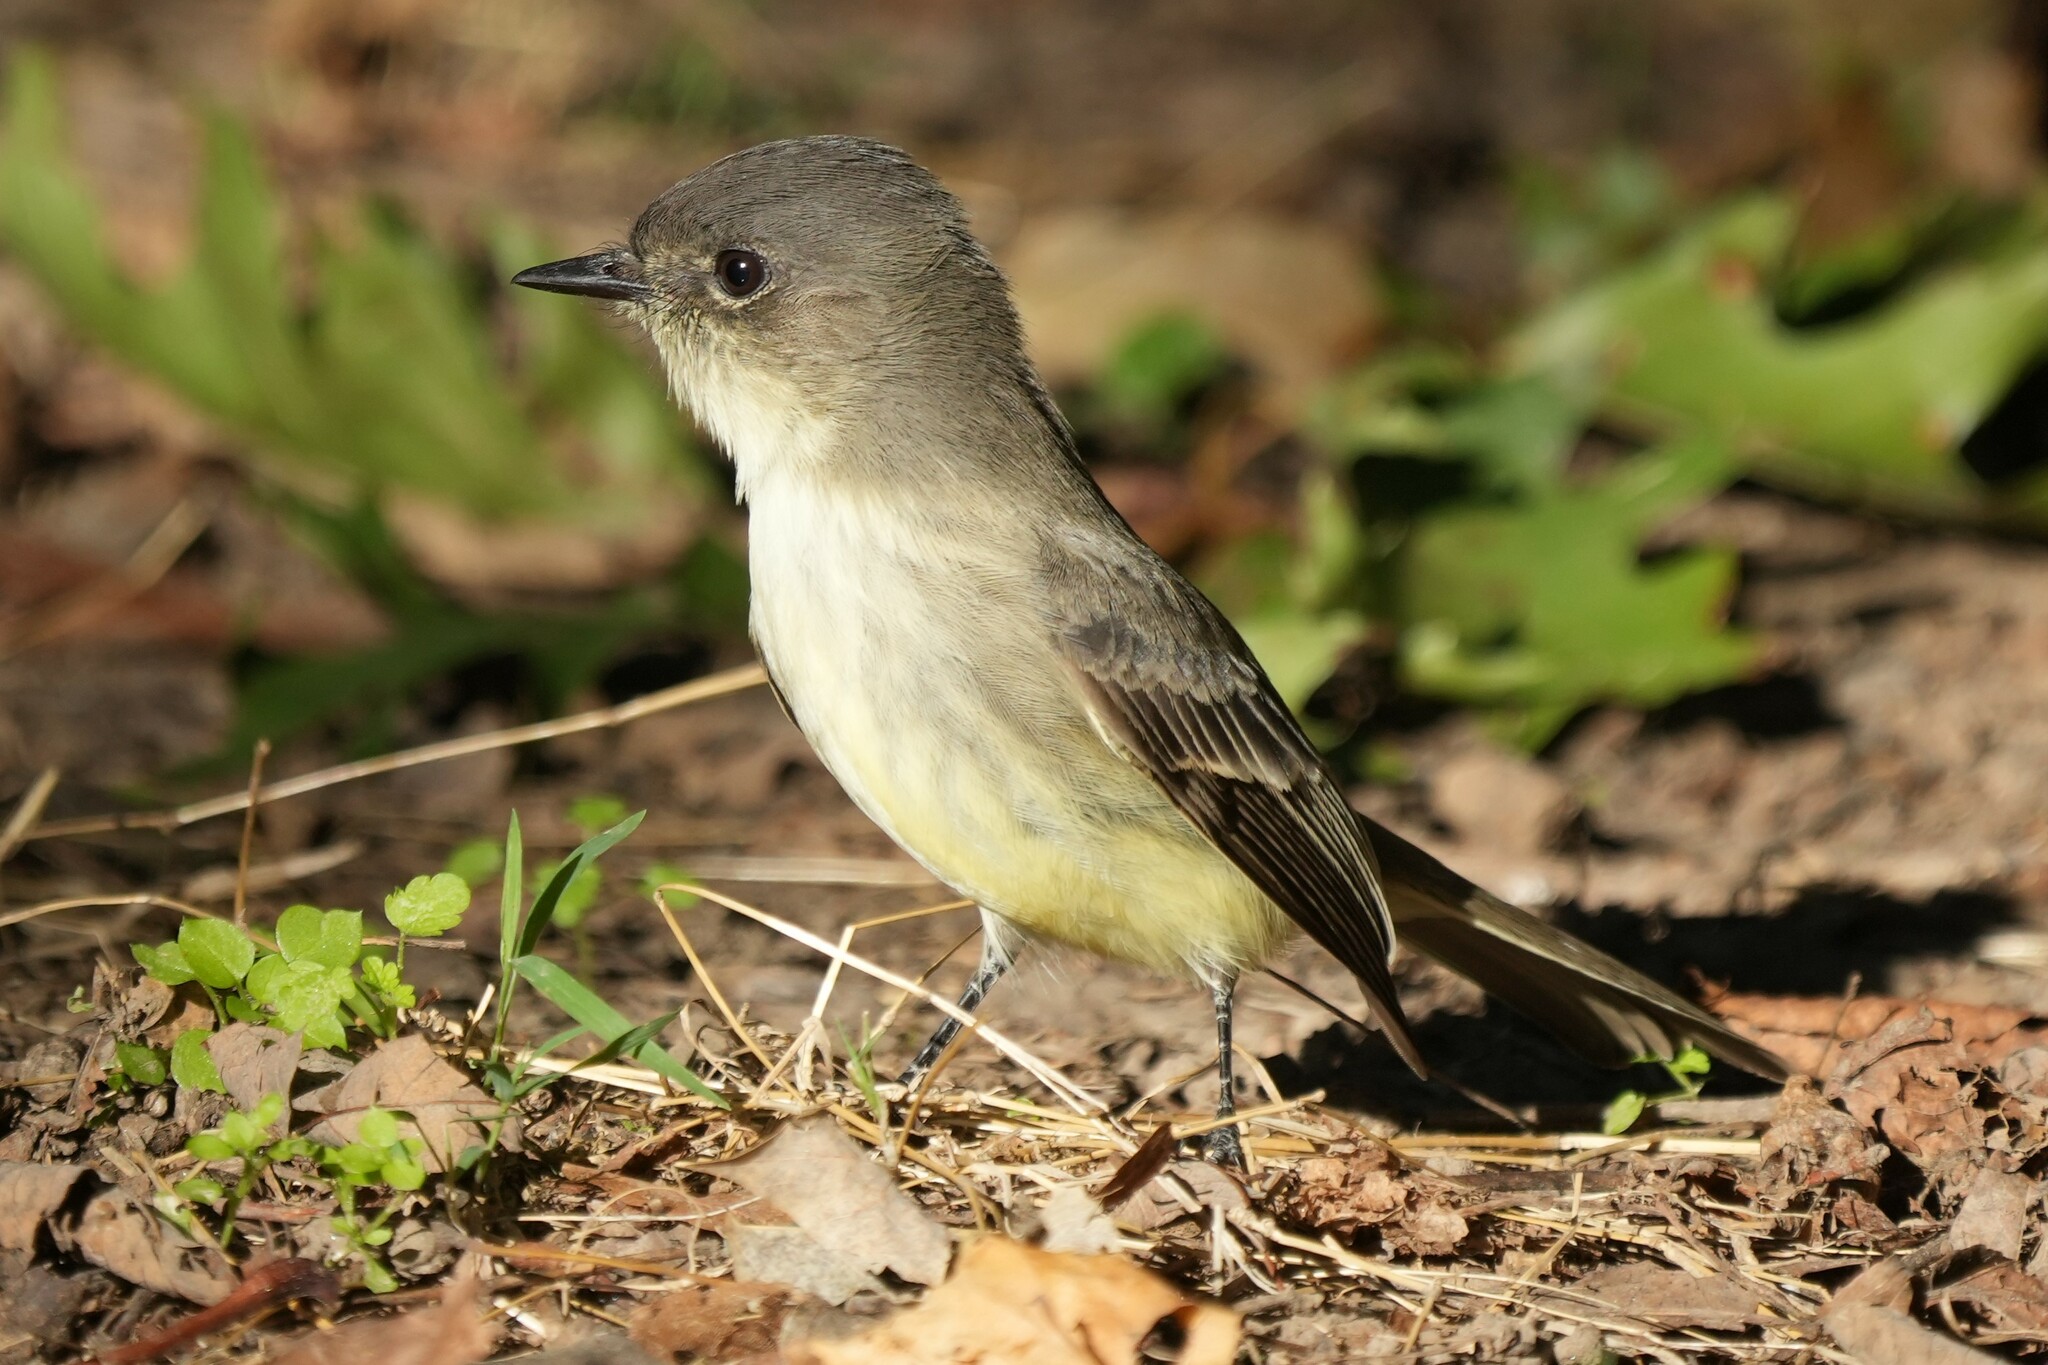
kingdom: Animalia
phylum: Chordata
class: Aves
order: Passeriformes
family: Tyrannidae
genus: Sayornis
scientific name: Sayornis phoebe
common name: Eastern phoebe
